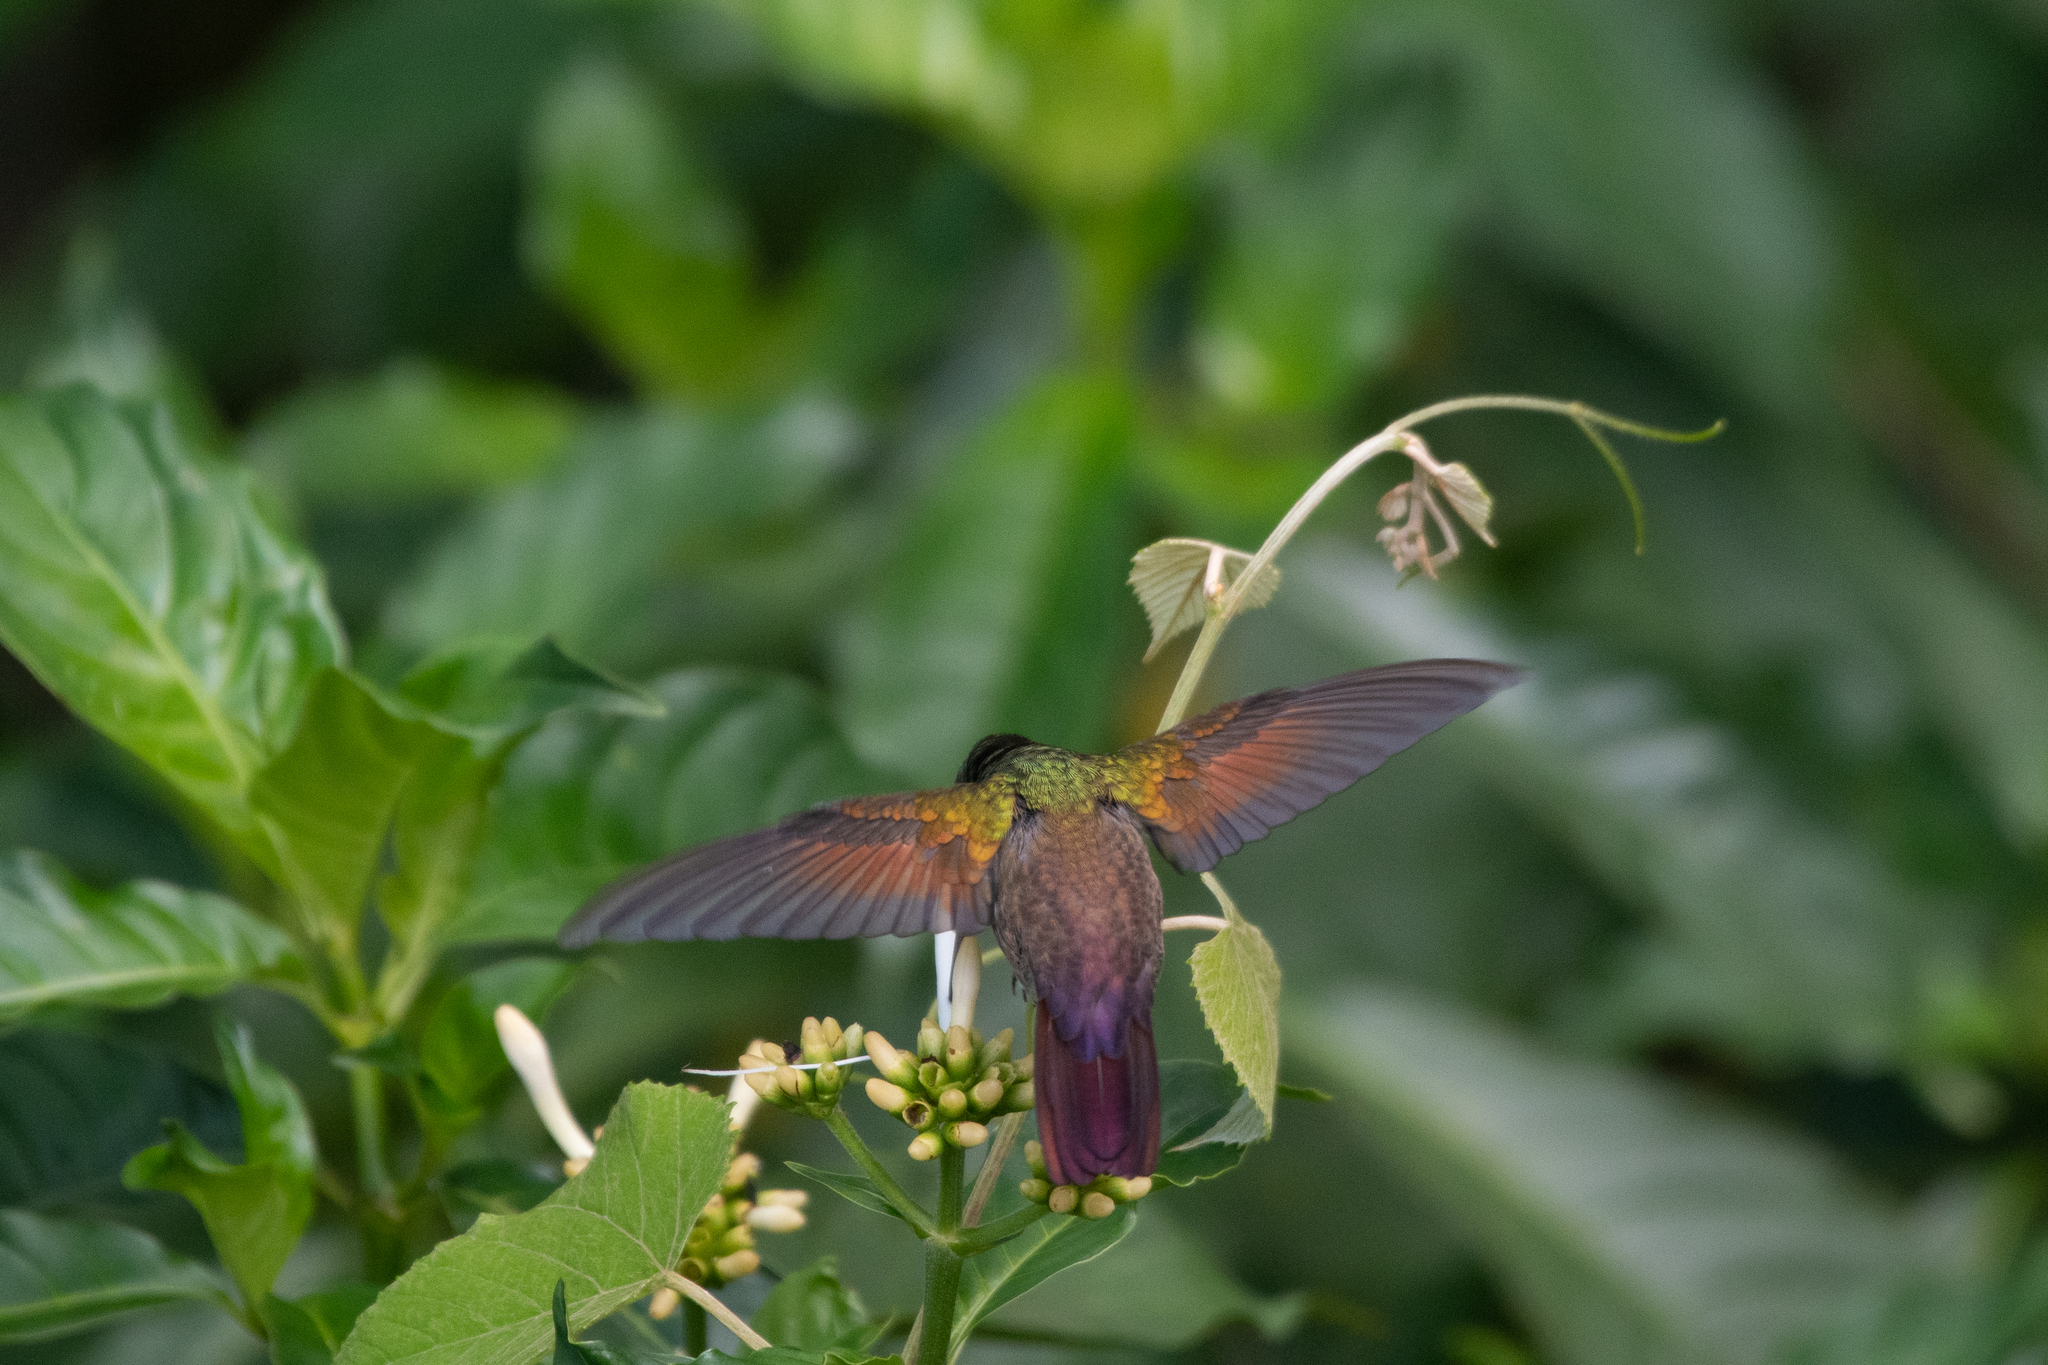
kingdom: Animalia
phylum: Chordata
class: Aves
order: Apodiformes
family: Trochilidae
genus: Saucerottia
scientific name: Saucerottia beryllina
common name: Berylline hummingbird
